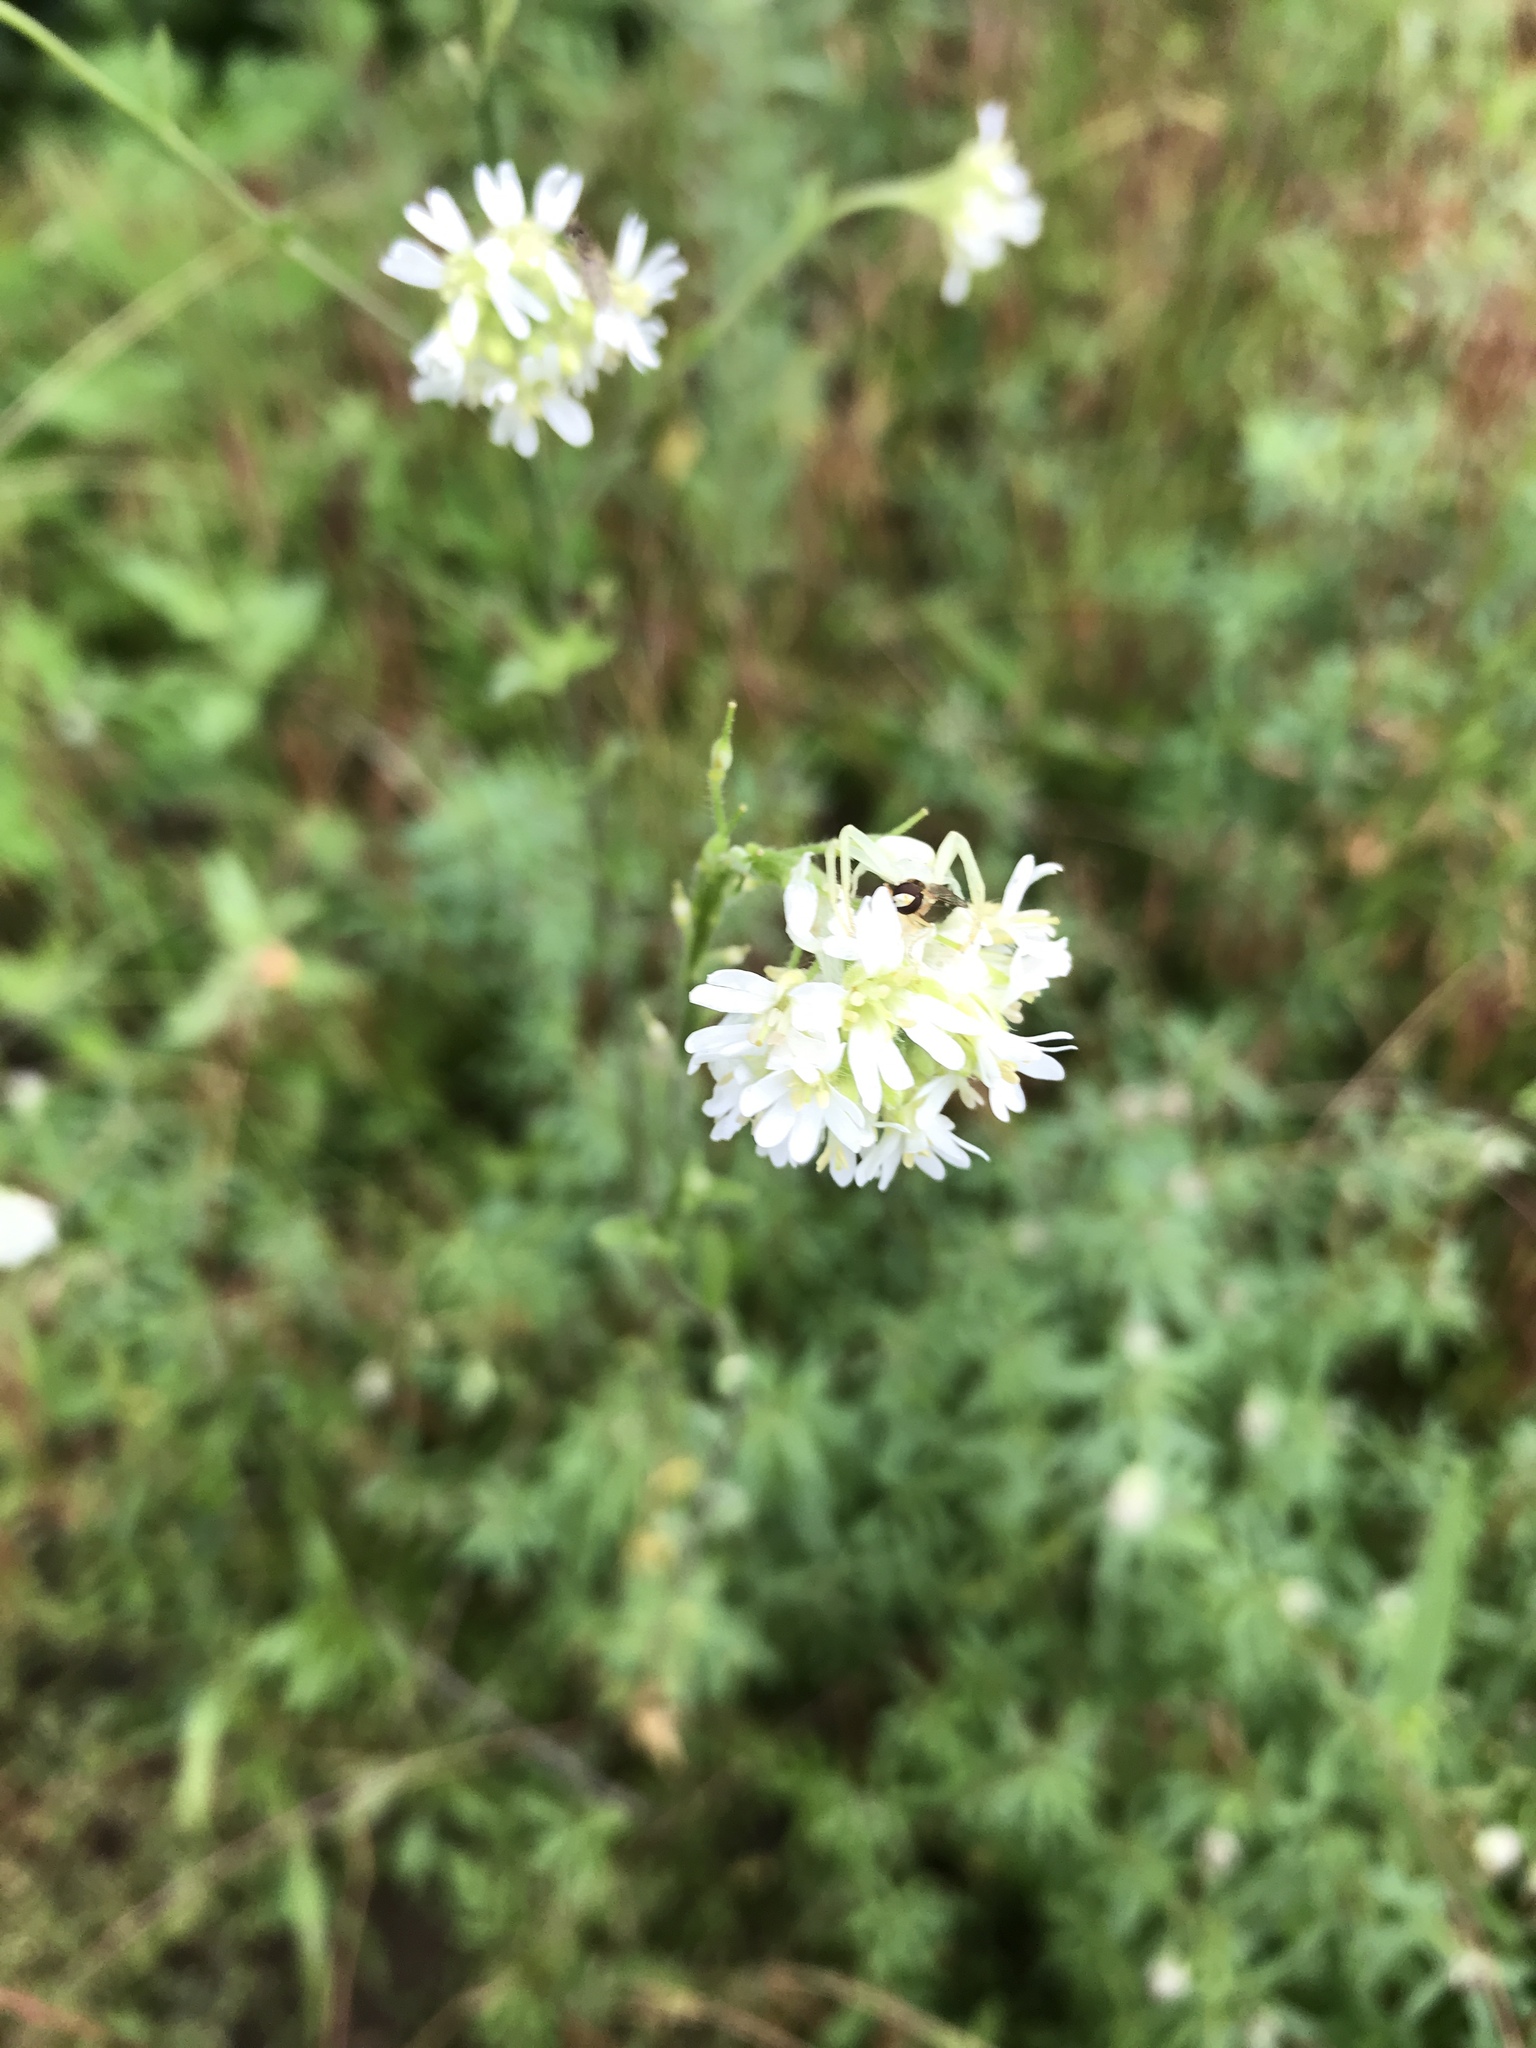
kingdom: Plantae
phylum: Tracheophyta
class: Magnoliopsida
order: Brassicales
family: Brassicaceae
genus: Berteroa
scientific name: Berteroa incana
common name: Hoary alison
